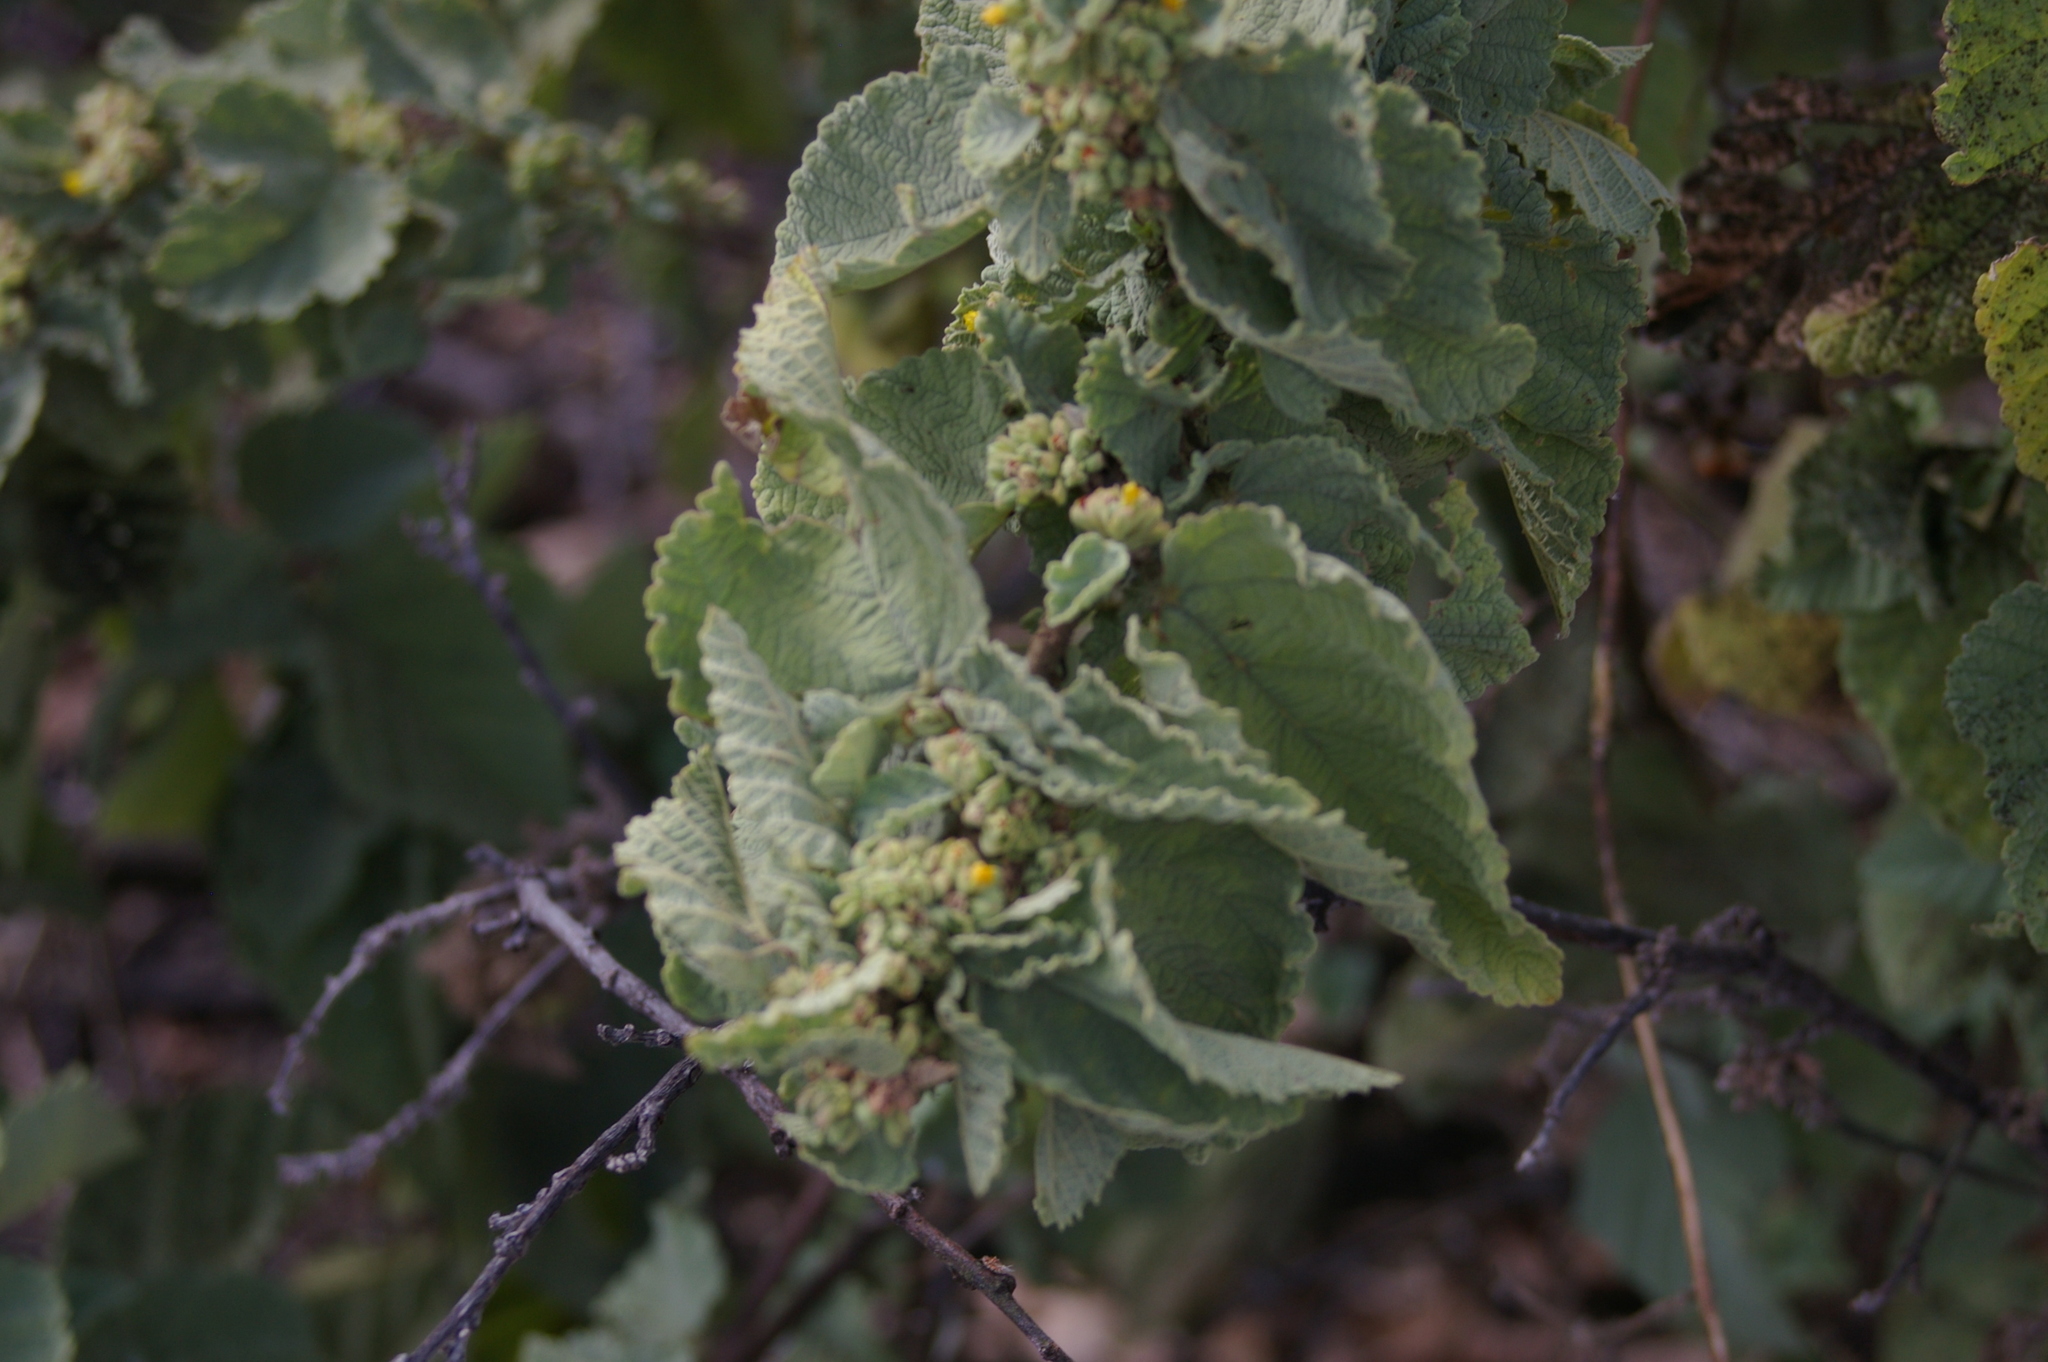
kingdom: Plantae
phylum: Tracheophyta
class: Magnoliopsida
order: Malvales
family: Malvaceae
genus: Waltheria
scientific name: Waltheria ovata
